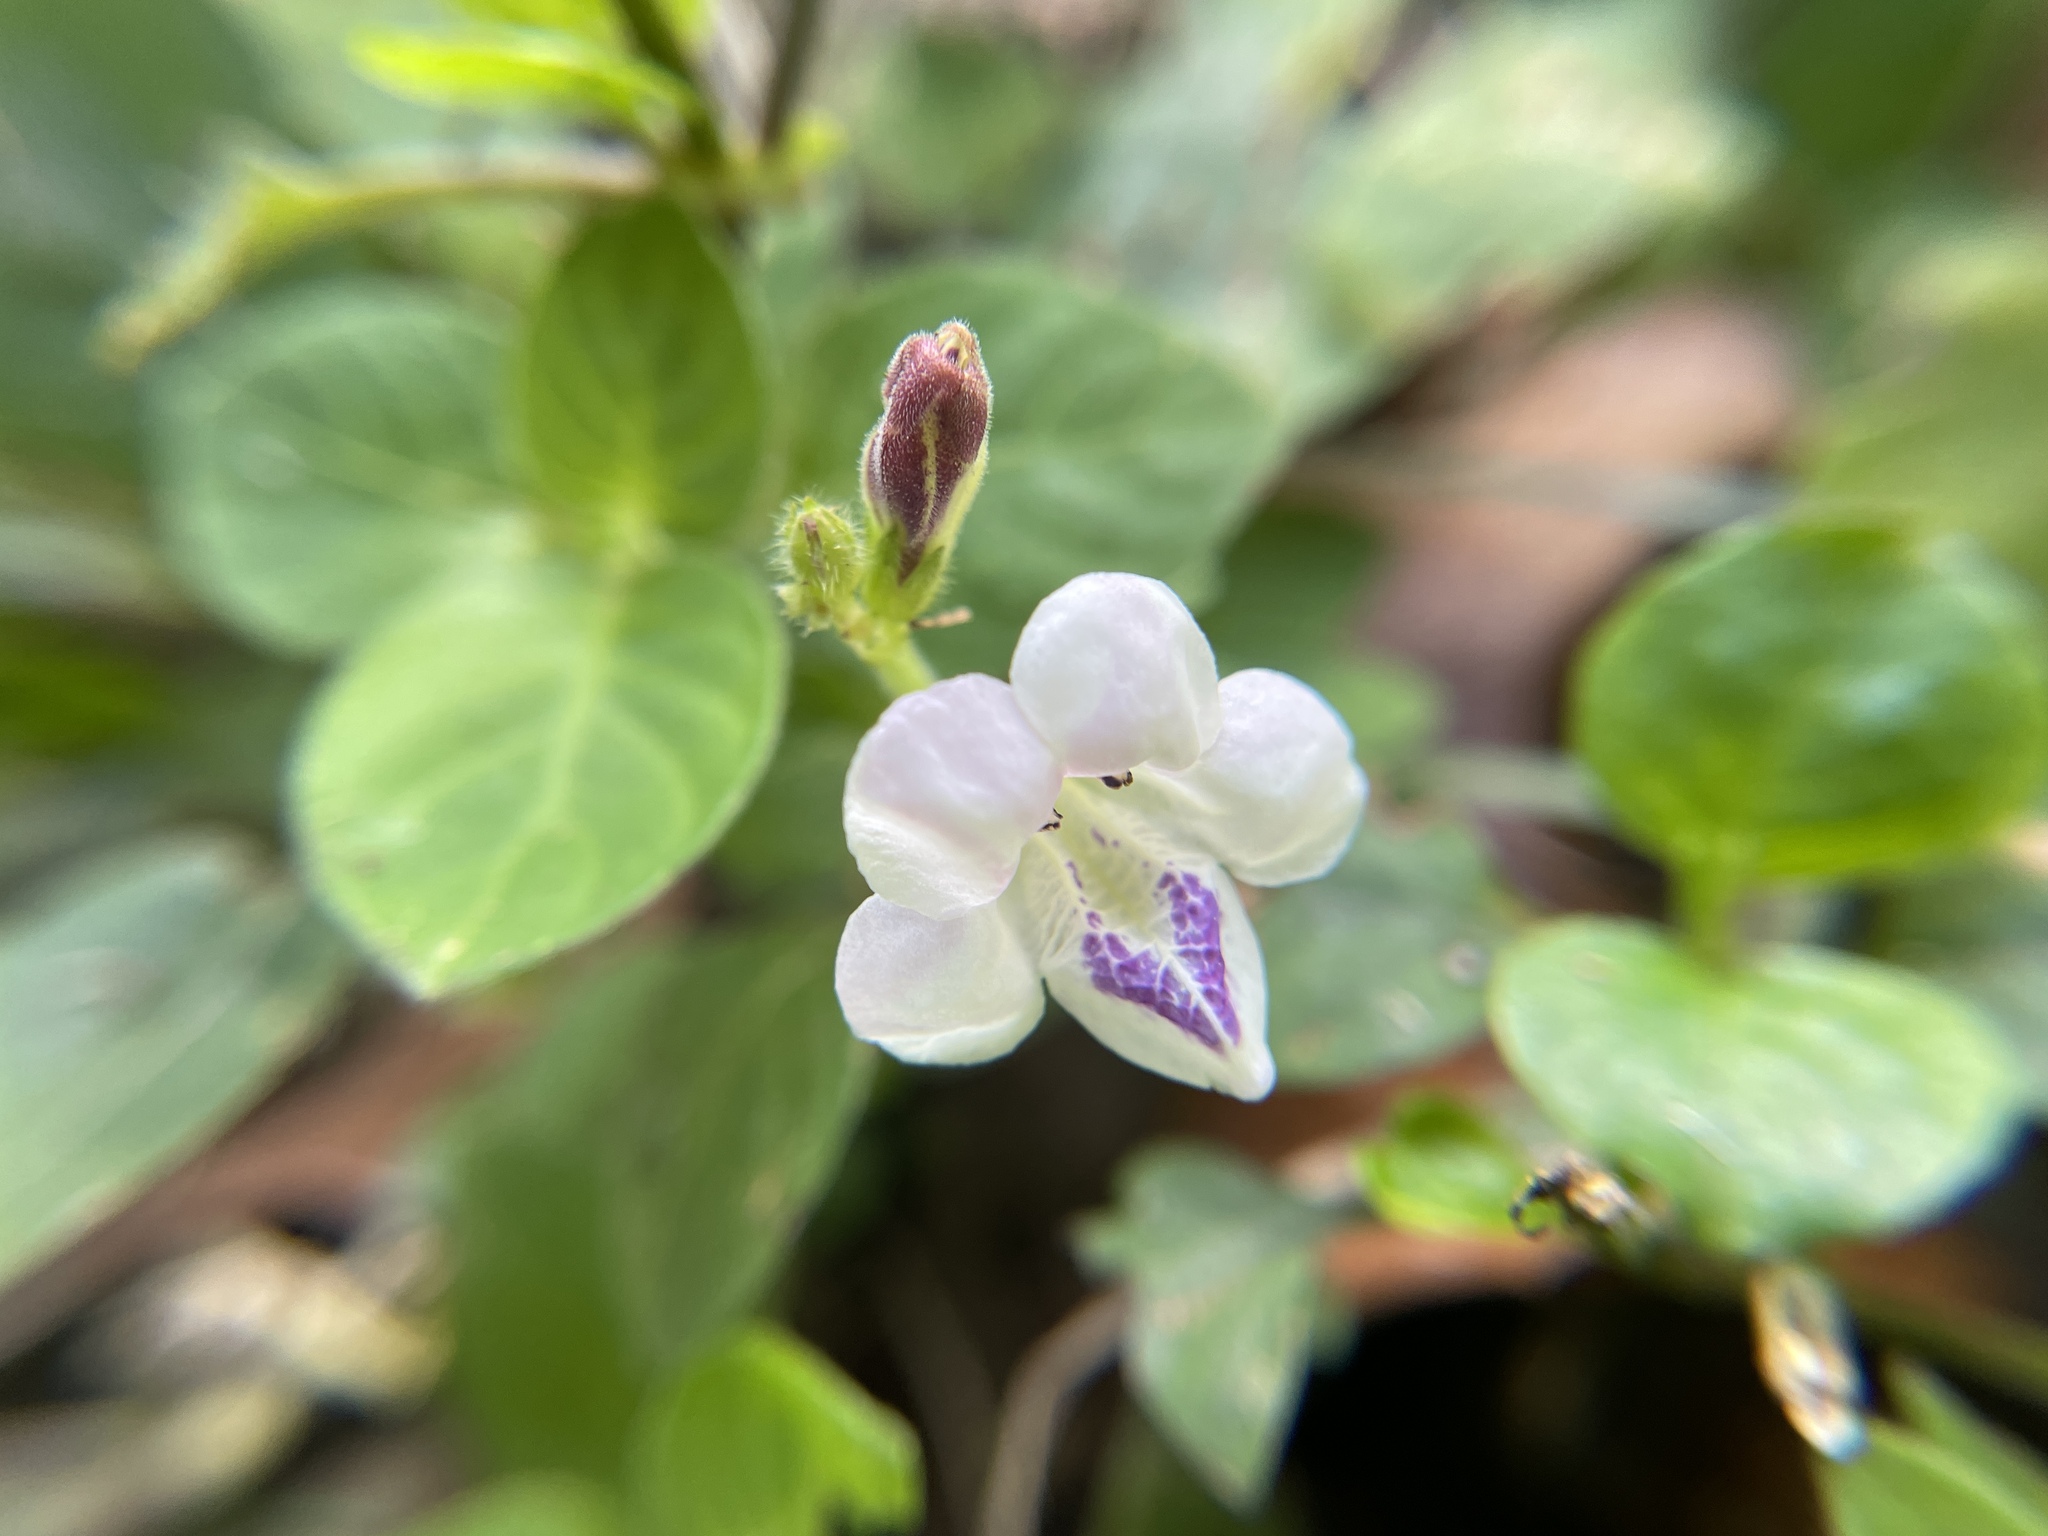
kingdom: Plantae
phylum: Tracheophyta
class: Magnoliopsida
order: Lamiales
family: Acanthaceae
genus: Asystasia
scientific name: Asystasia intrusa
